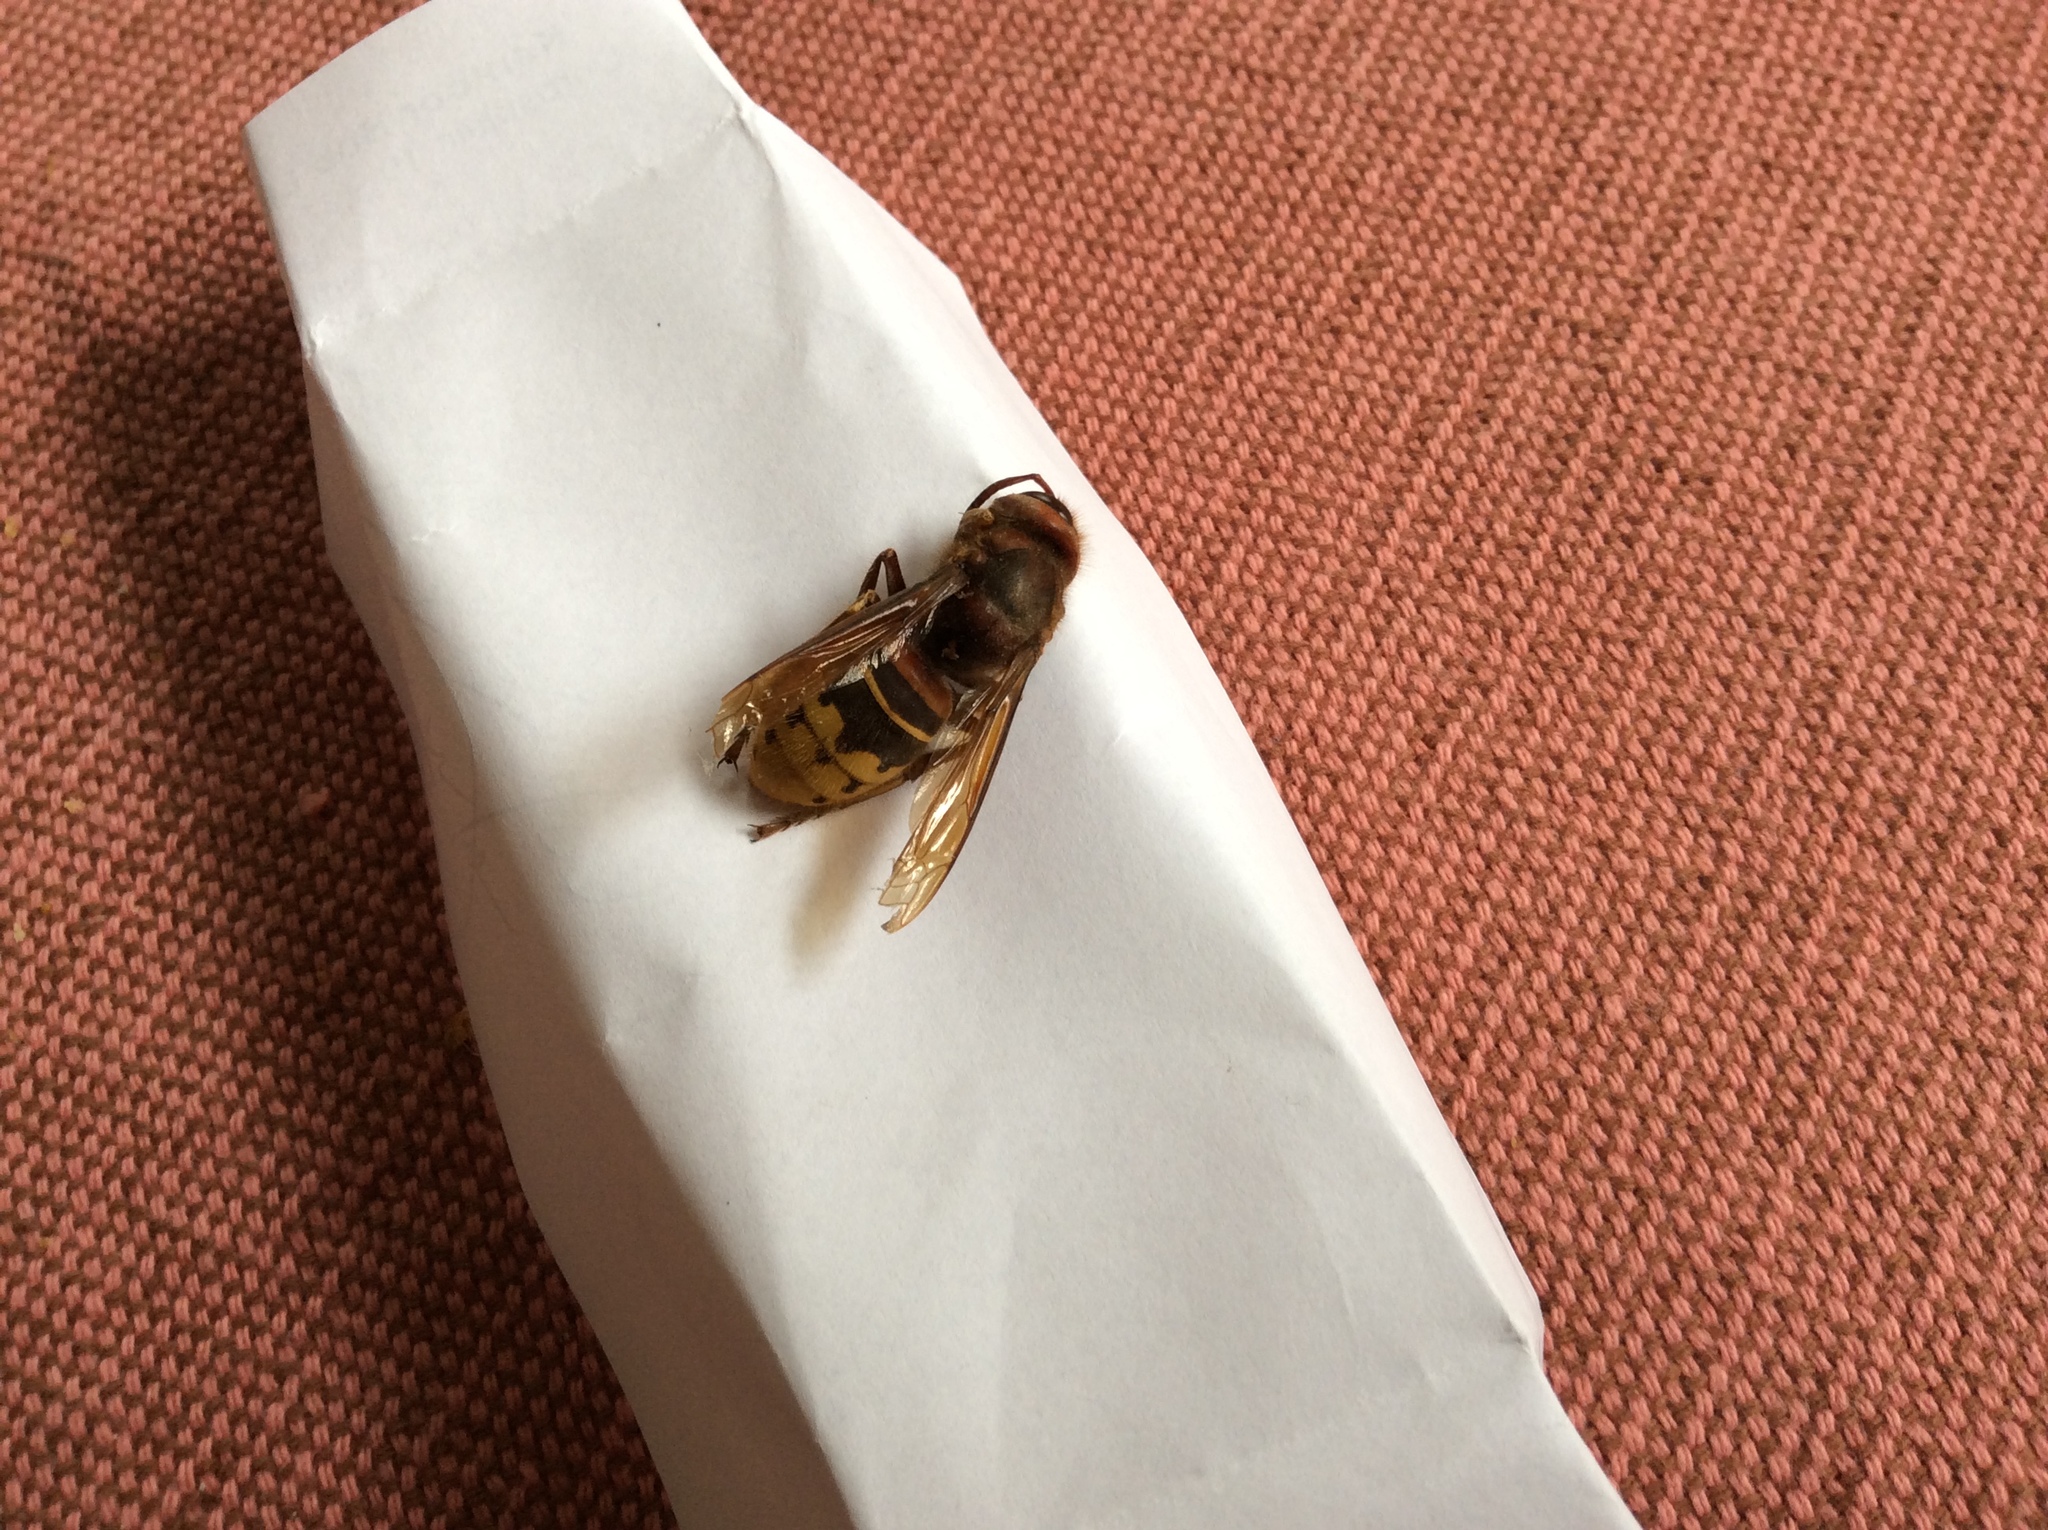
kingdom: Animalia
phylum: Arthropoda
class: Insecta
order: Hymenoptera
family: Vespidae
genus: Vespa
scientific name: Vespa crabro
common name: Hornet
